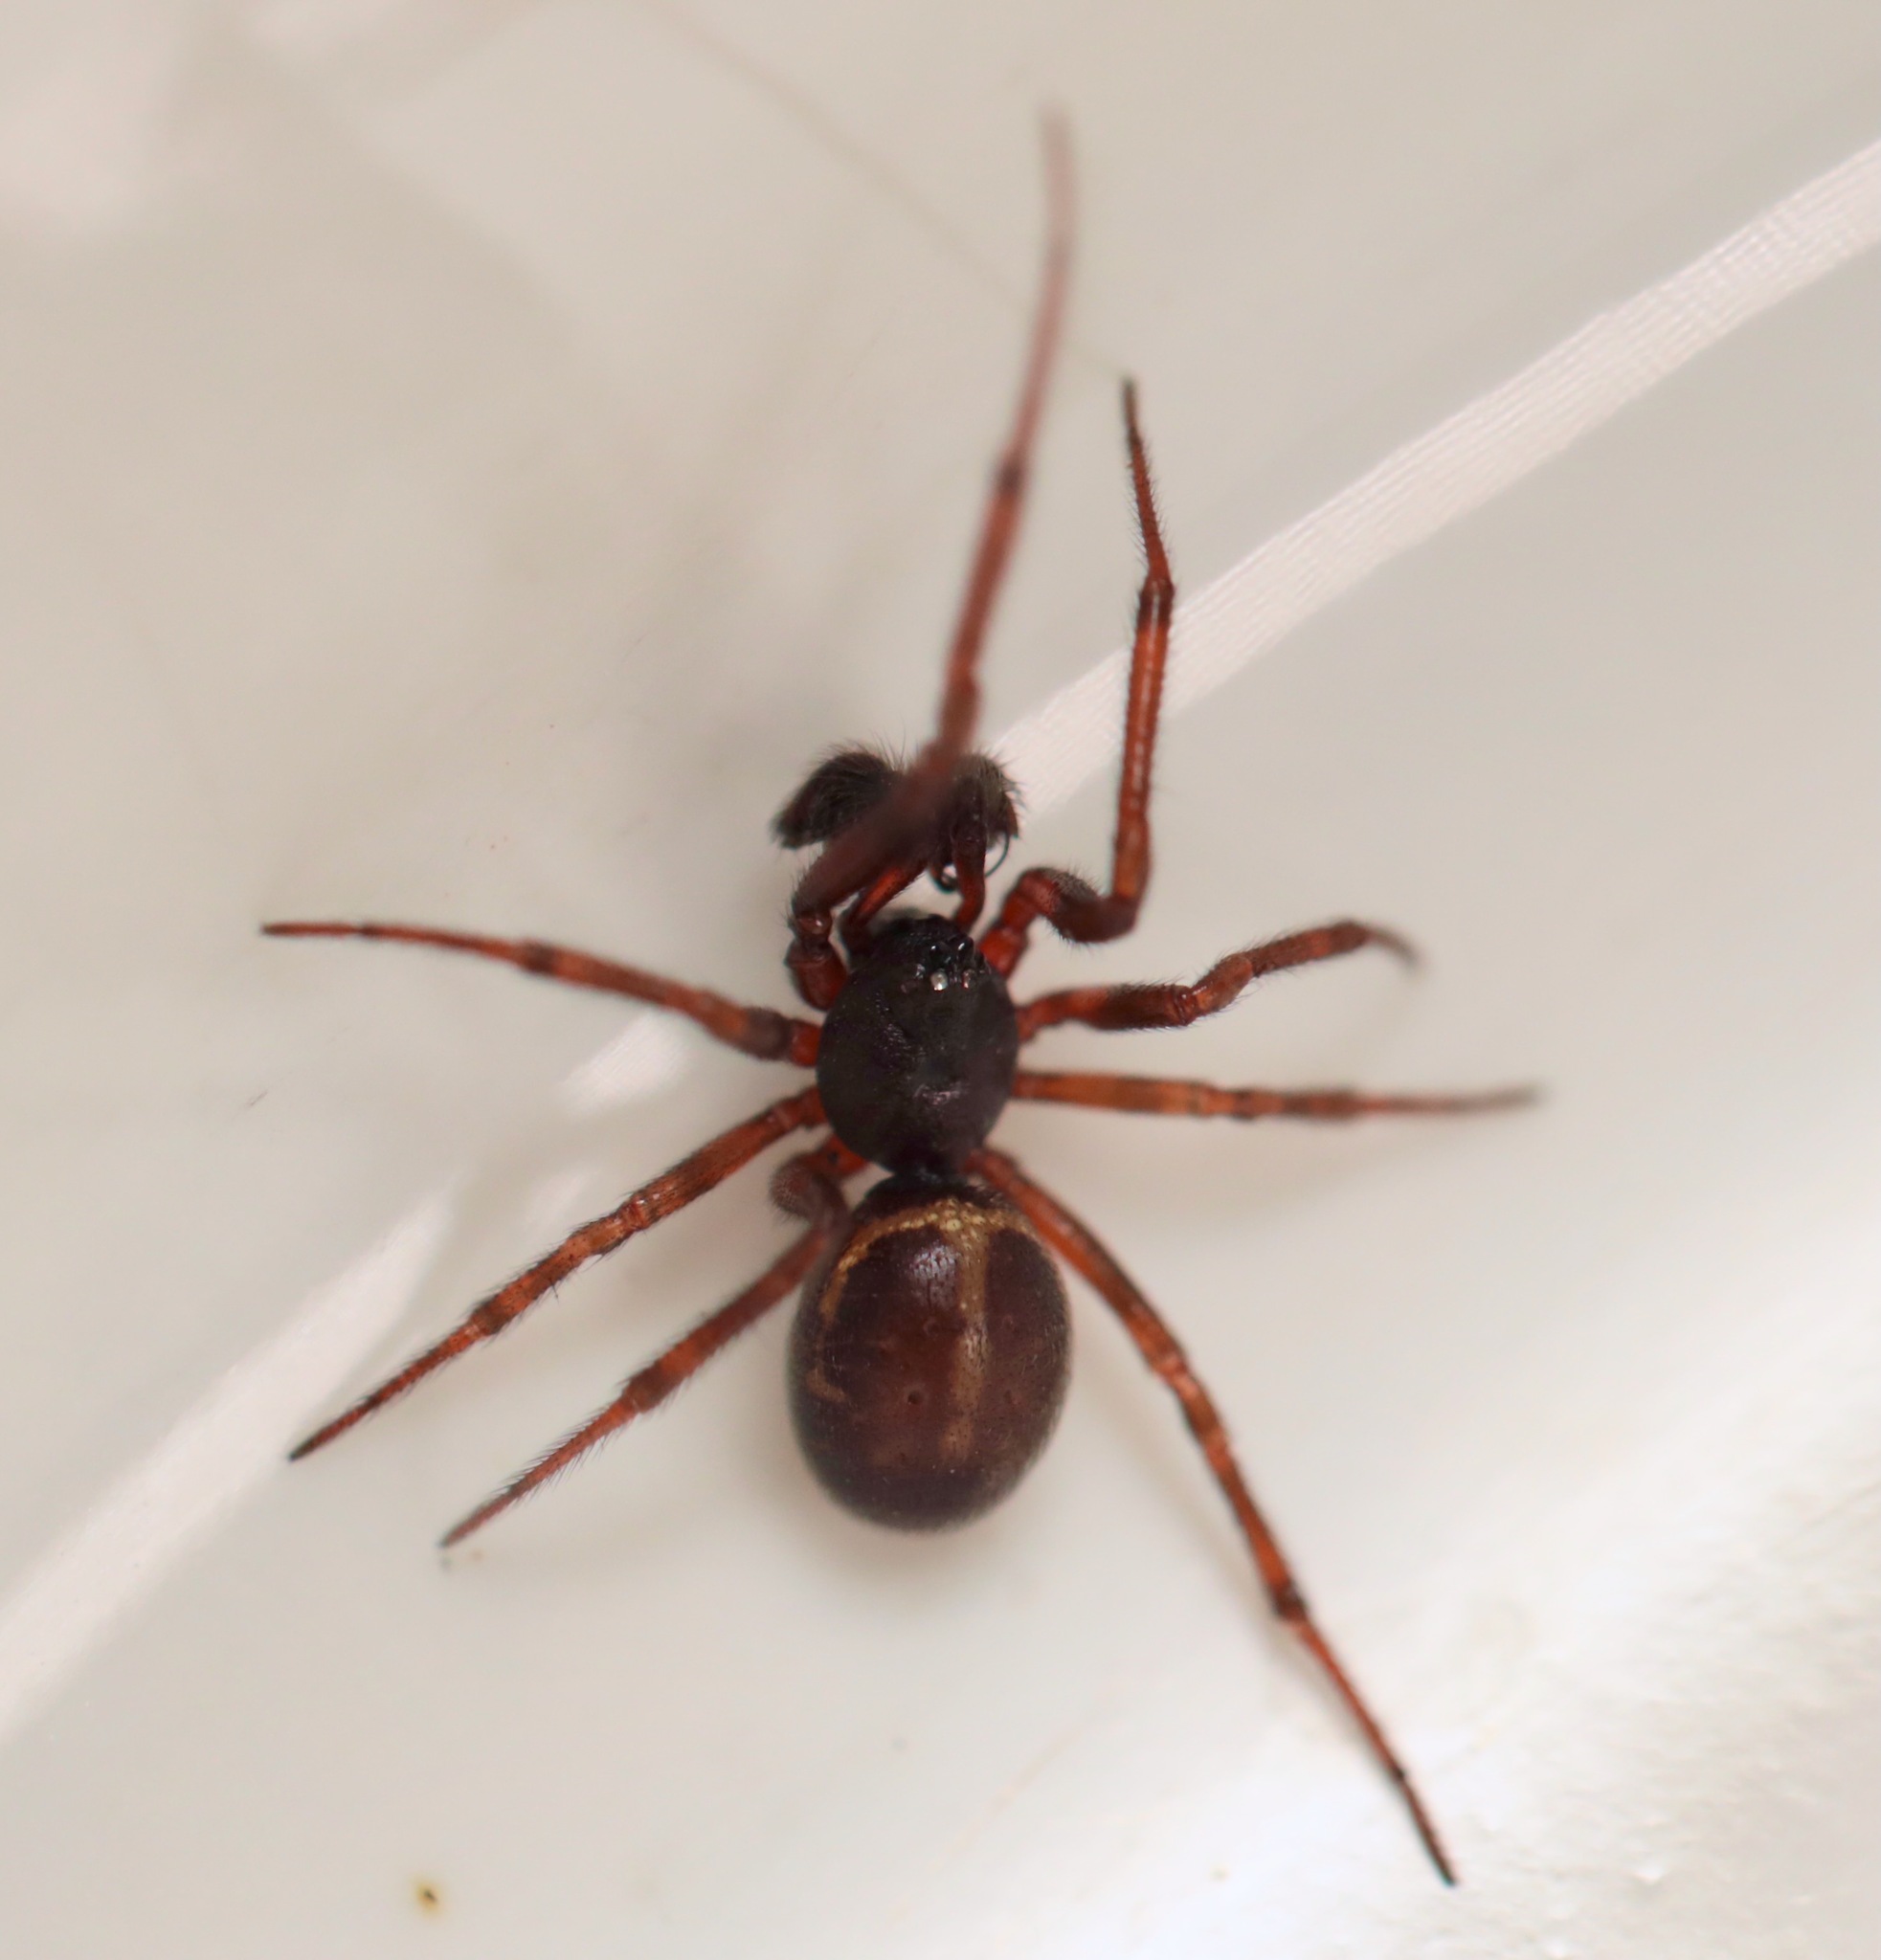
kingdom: Animalia
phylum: Arthropoda
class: Arachnida
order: Araneae
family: Theridiidae
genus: Steatoda
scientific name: Steatoda borealis
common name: Boreal combfoot
